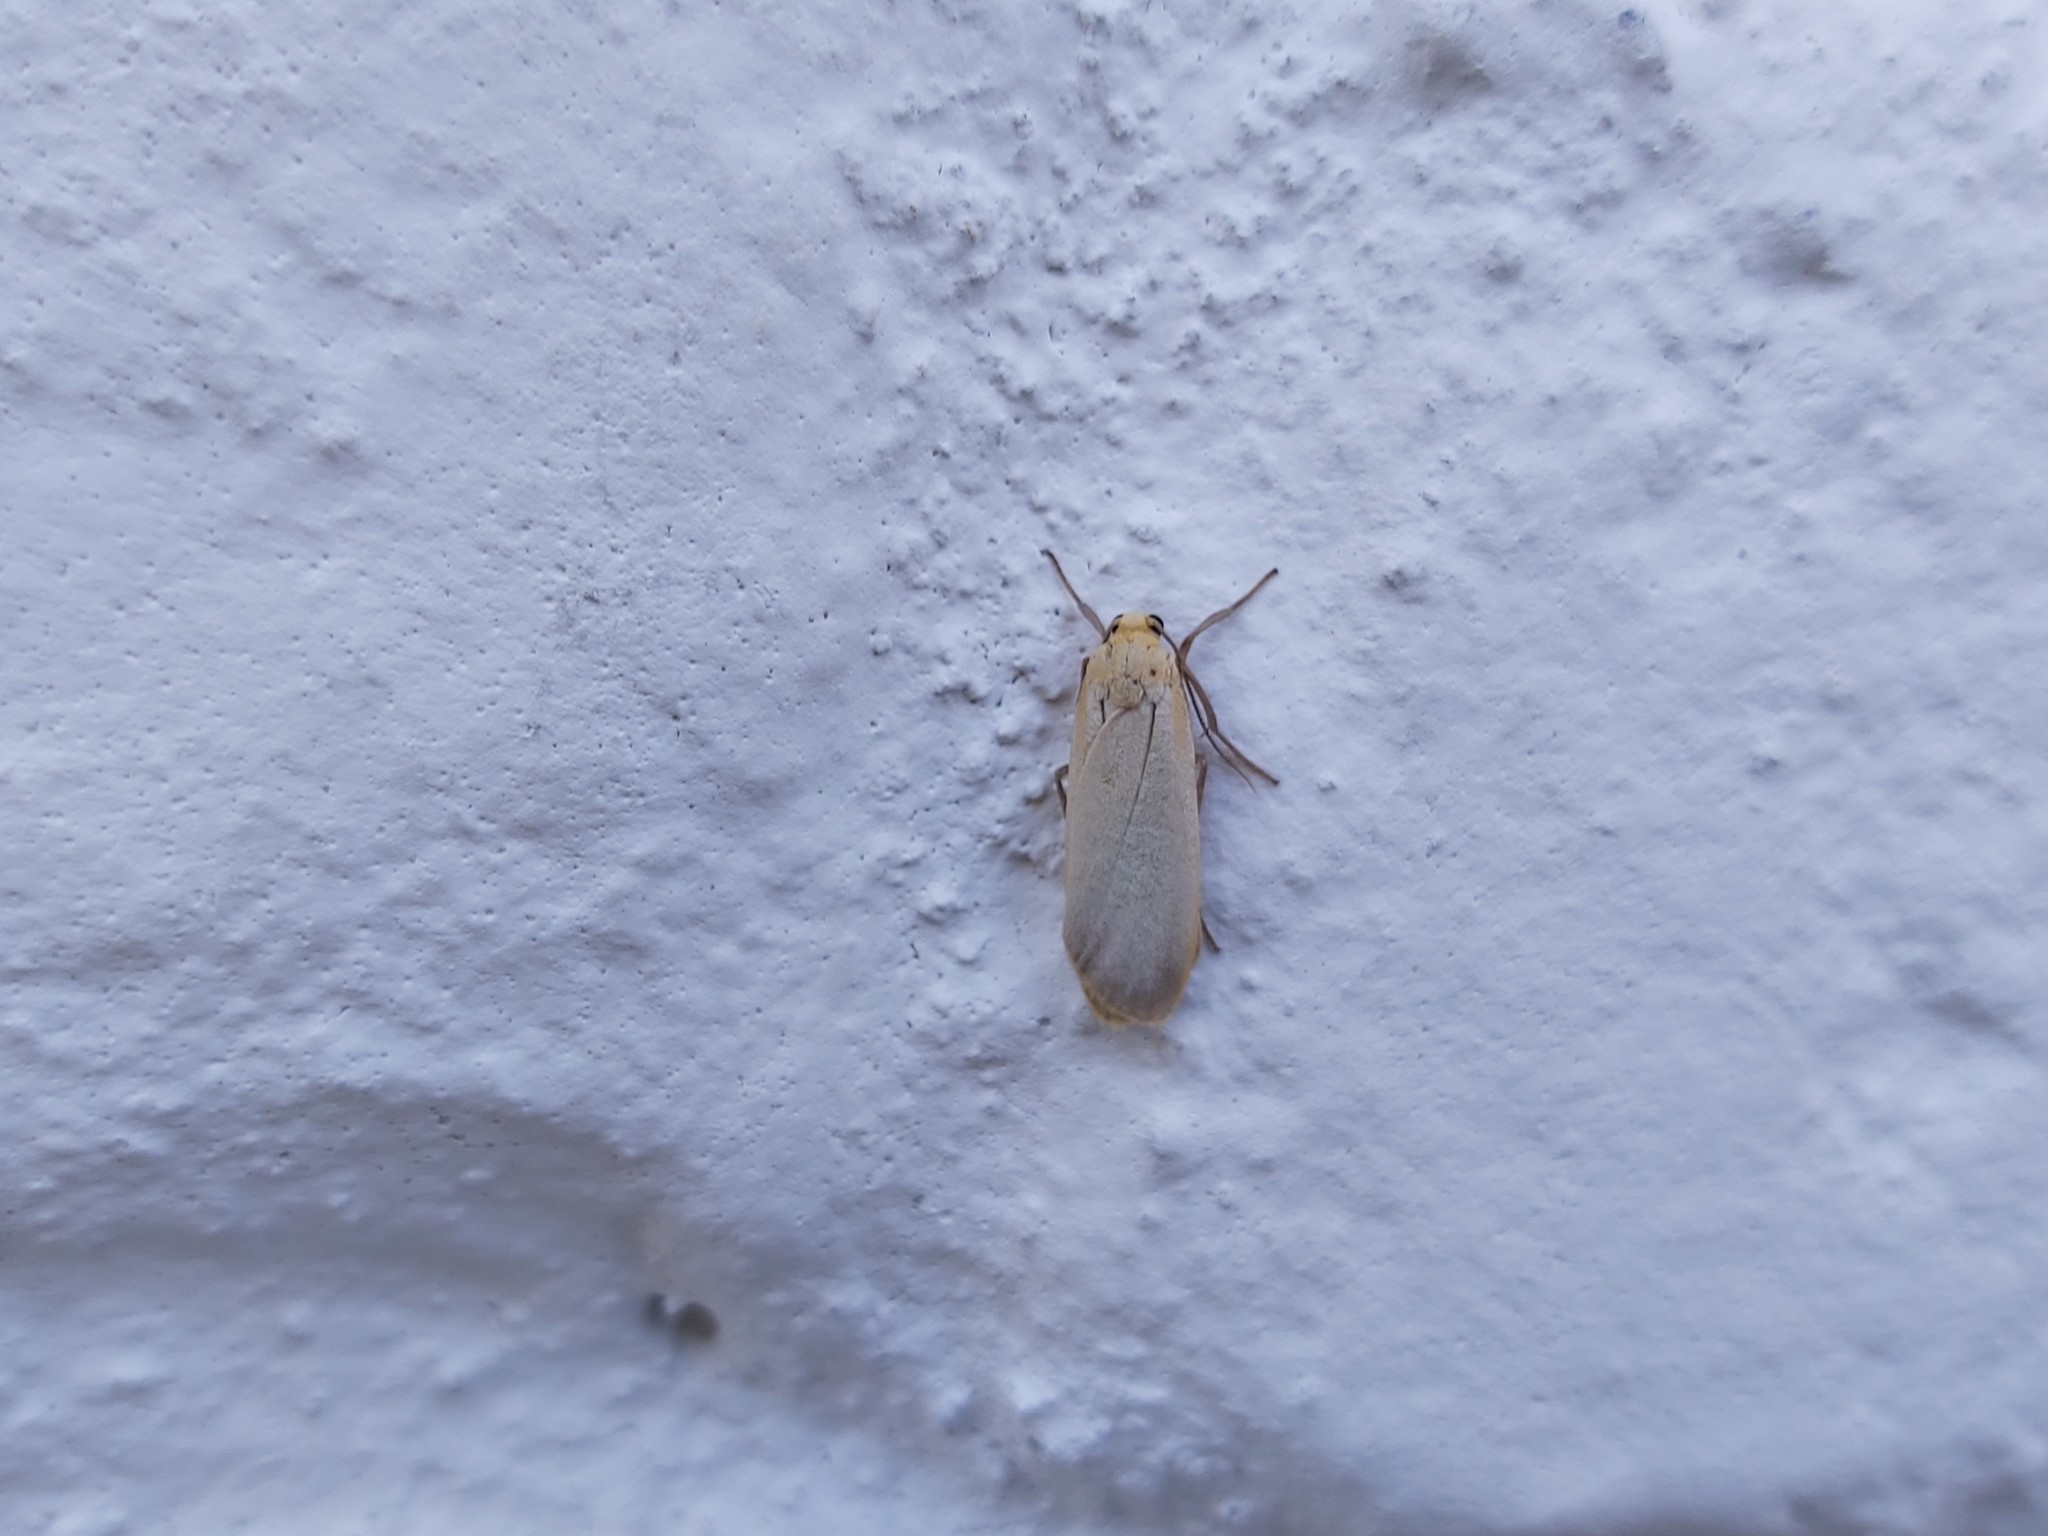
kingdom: Animalia
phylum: Arthropoda
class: Insecta
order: Lepidoptera
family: Erebidae
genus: Katha
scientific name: Katha depressa
